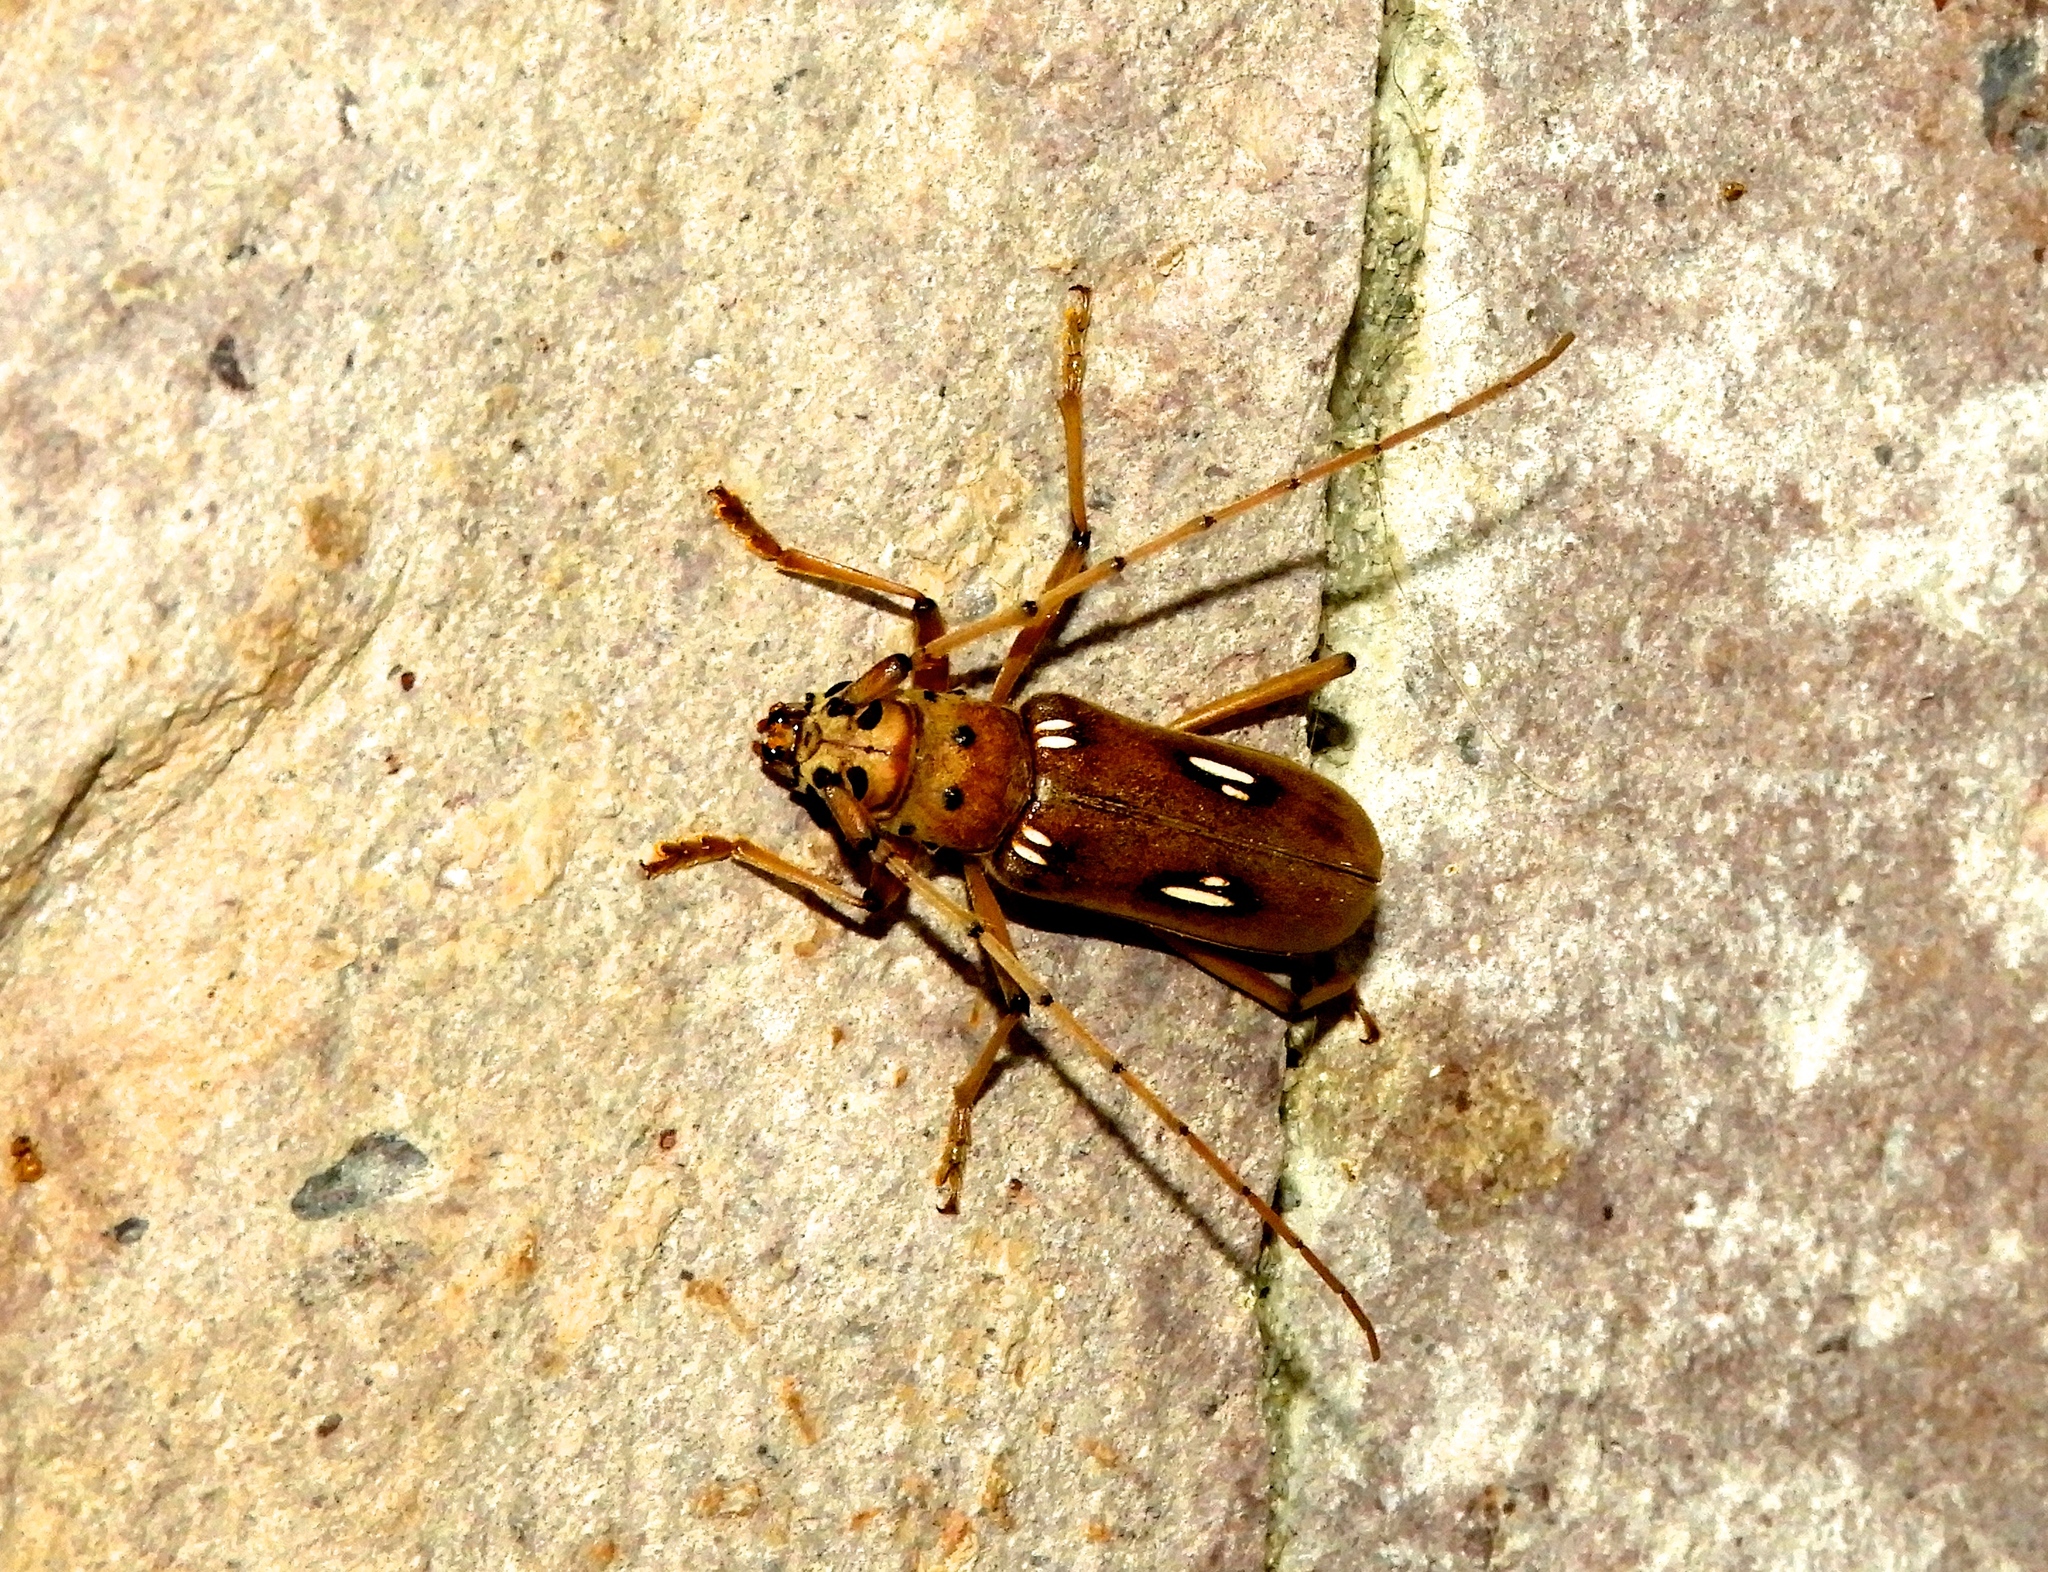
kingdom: Animalia
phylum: Arthropoda
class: Insecta
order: Coleoptera
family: Cerambycidae
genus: Eburia
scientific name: Eburia laticollis
